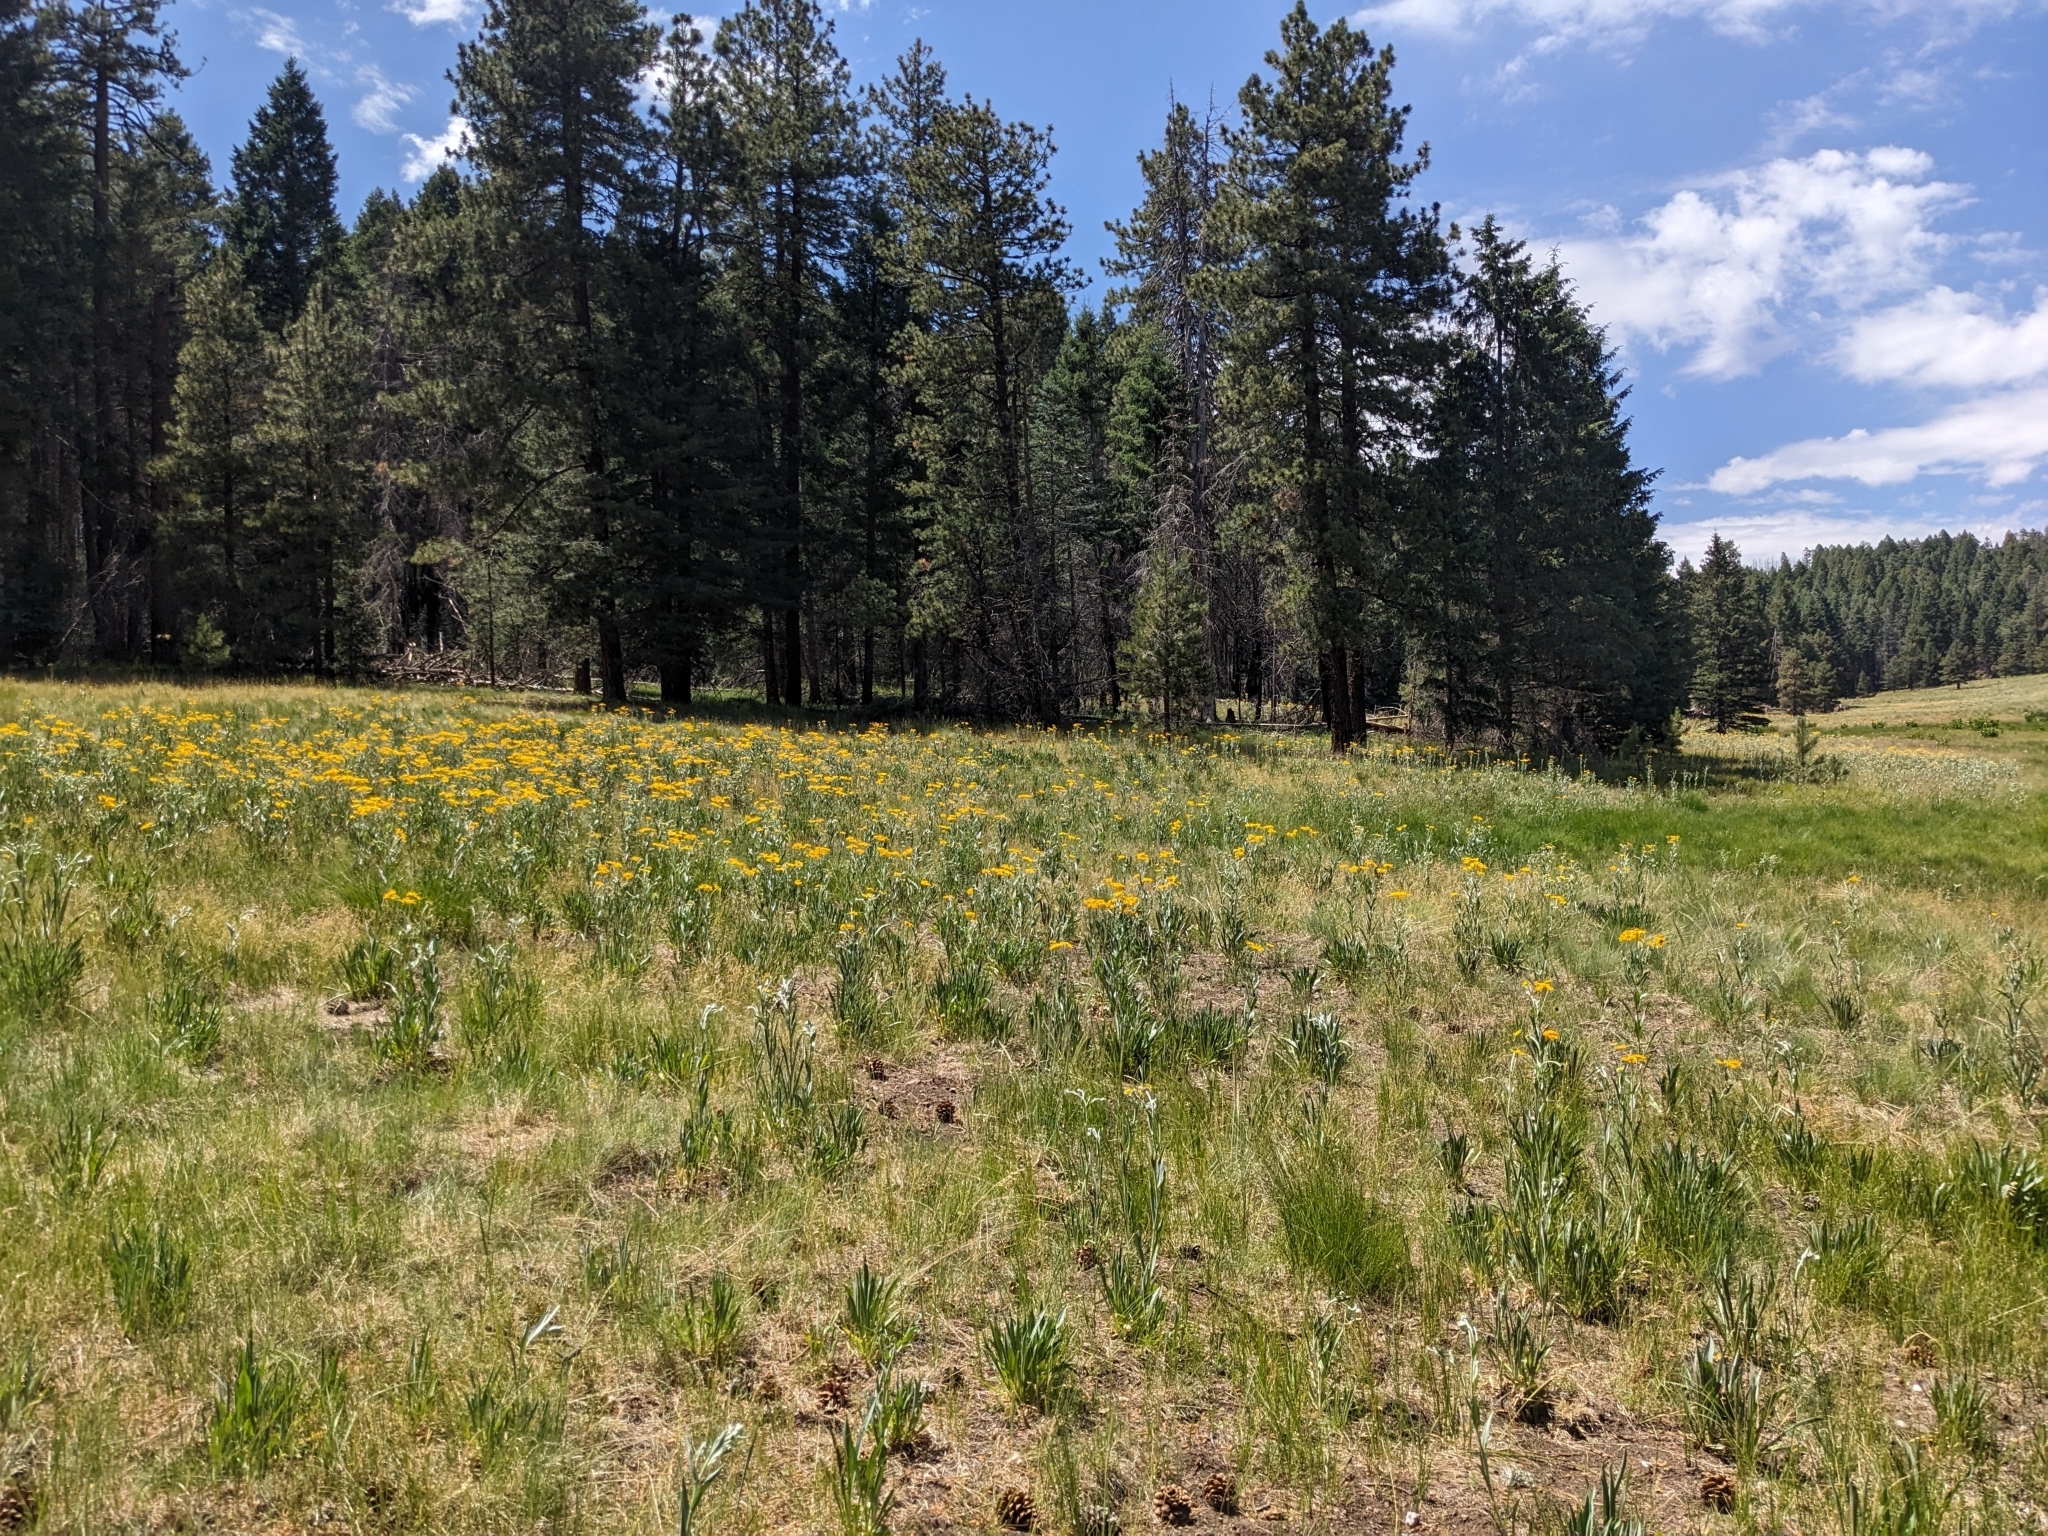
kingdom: Plantae
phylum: Tracheophyta
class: Magnoliopsida
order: Asterales
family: Asteraceae
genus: Hymenoxys
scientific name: Hymenoxys hoopesii
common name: Orange-sneezeweed
